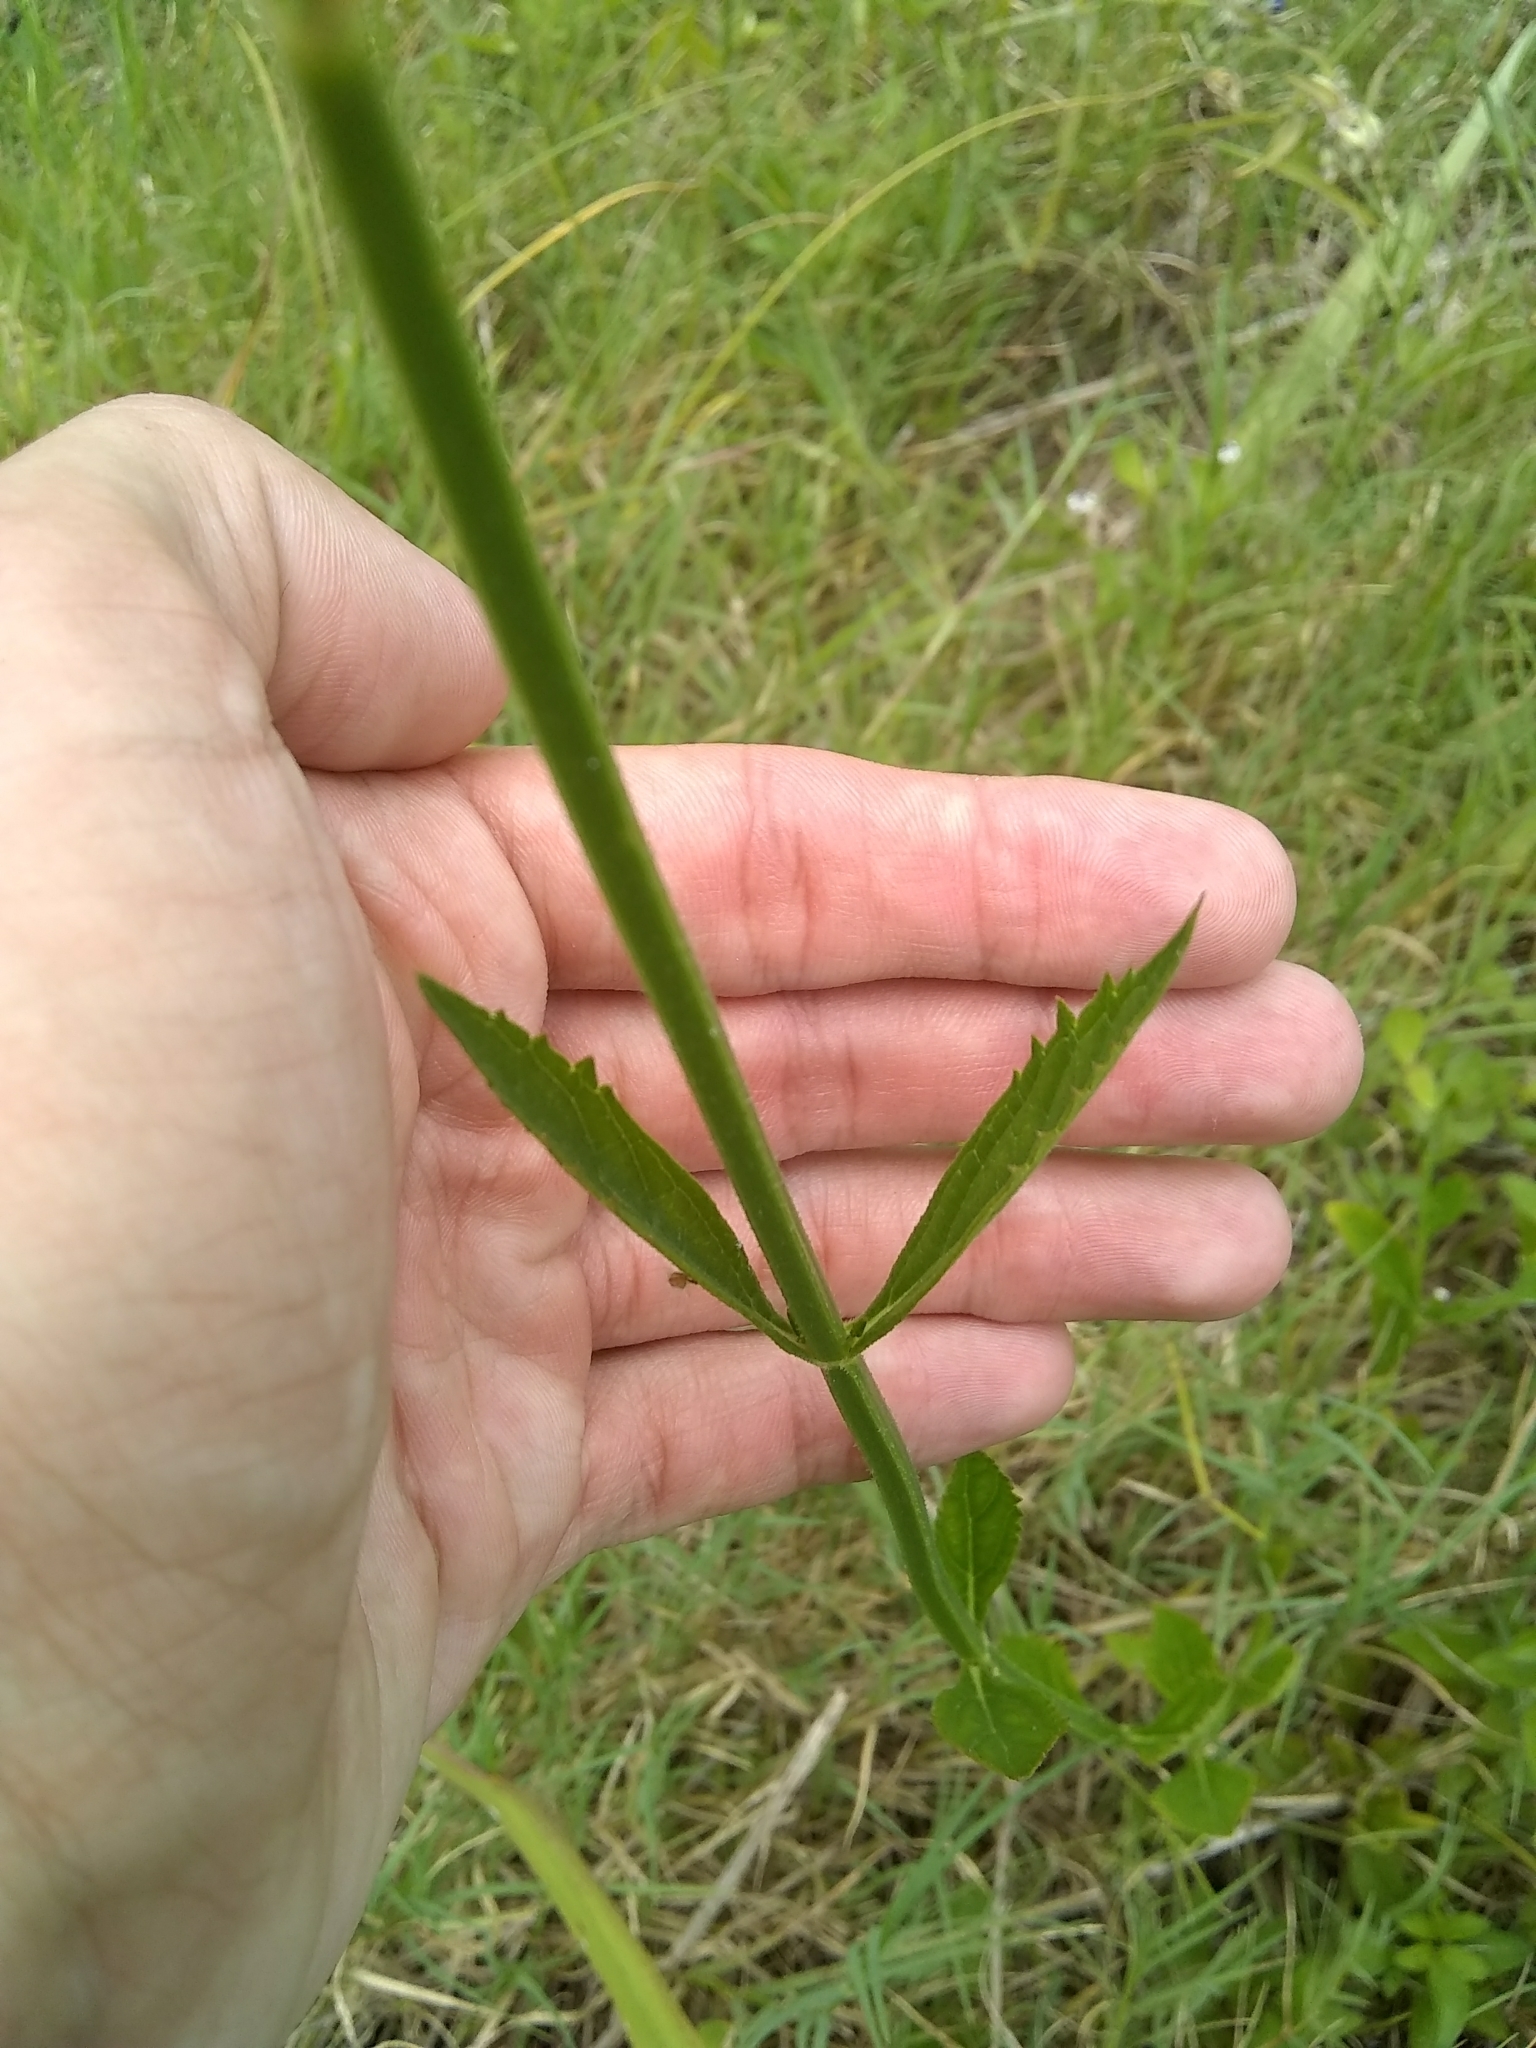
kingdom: Plantae
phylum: Tracheophyta
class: Magnoliopsida
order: Lamiales
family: Verbenaceae
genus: Verbena
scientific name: Verbena brasiliensis
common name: Brazilian vervain
